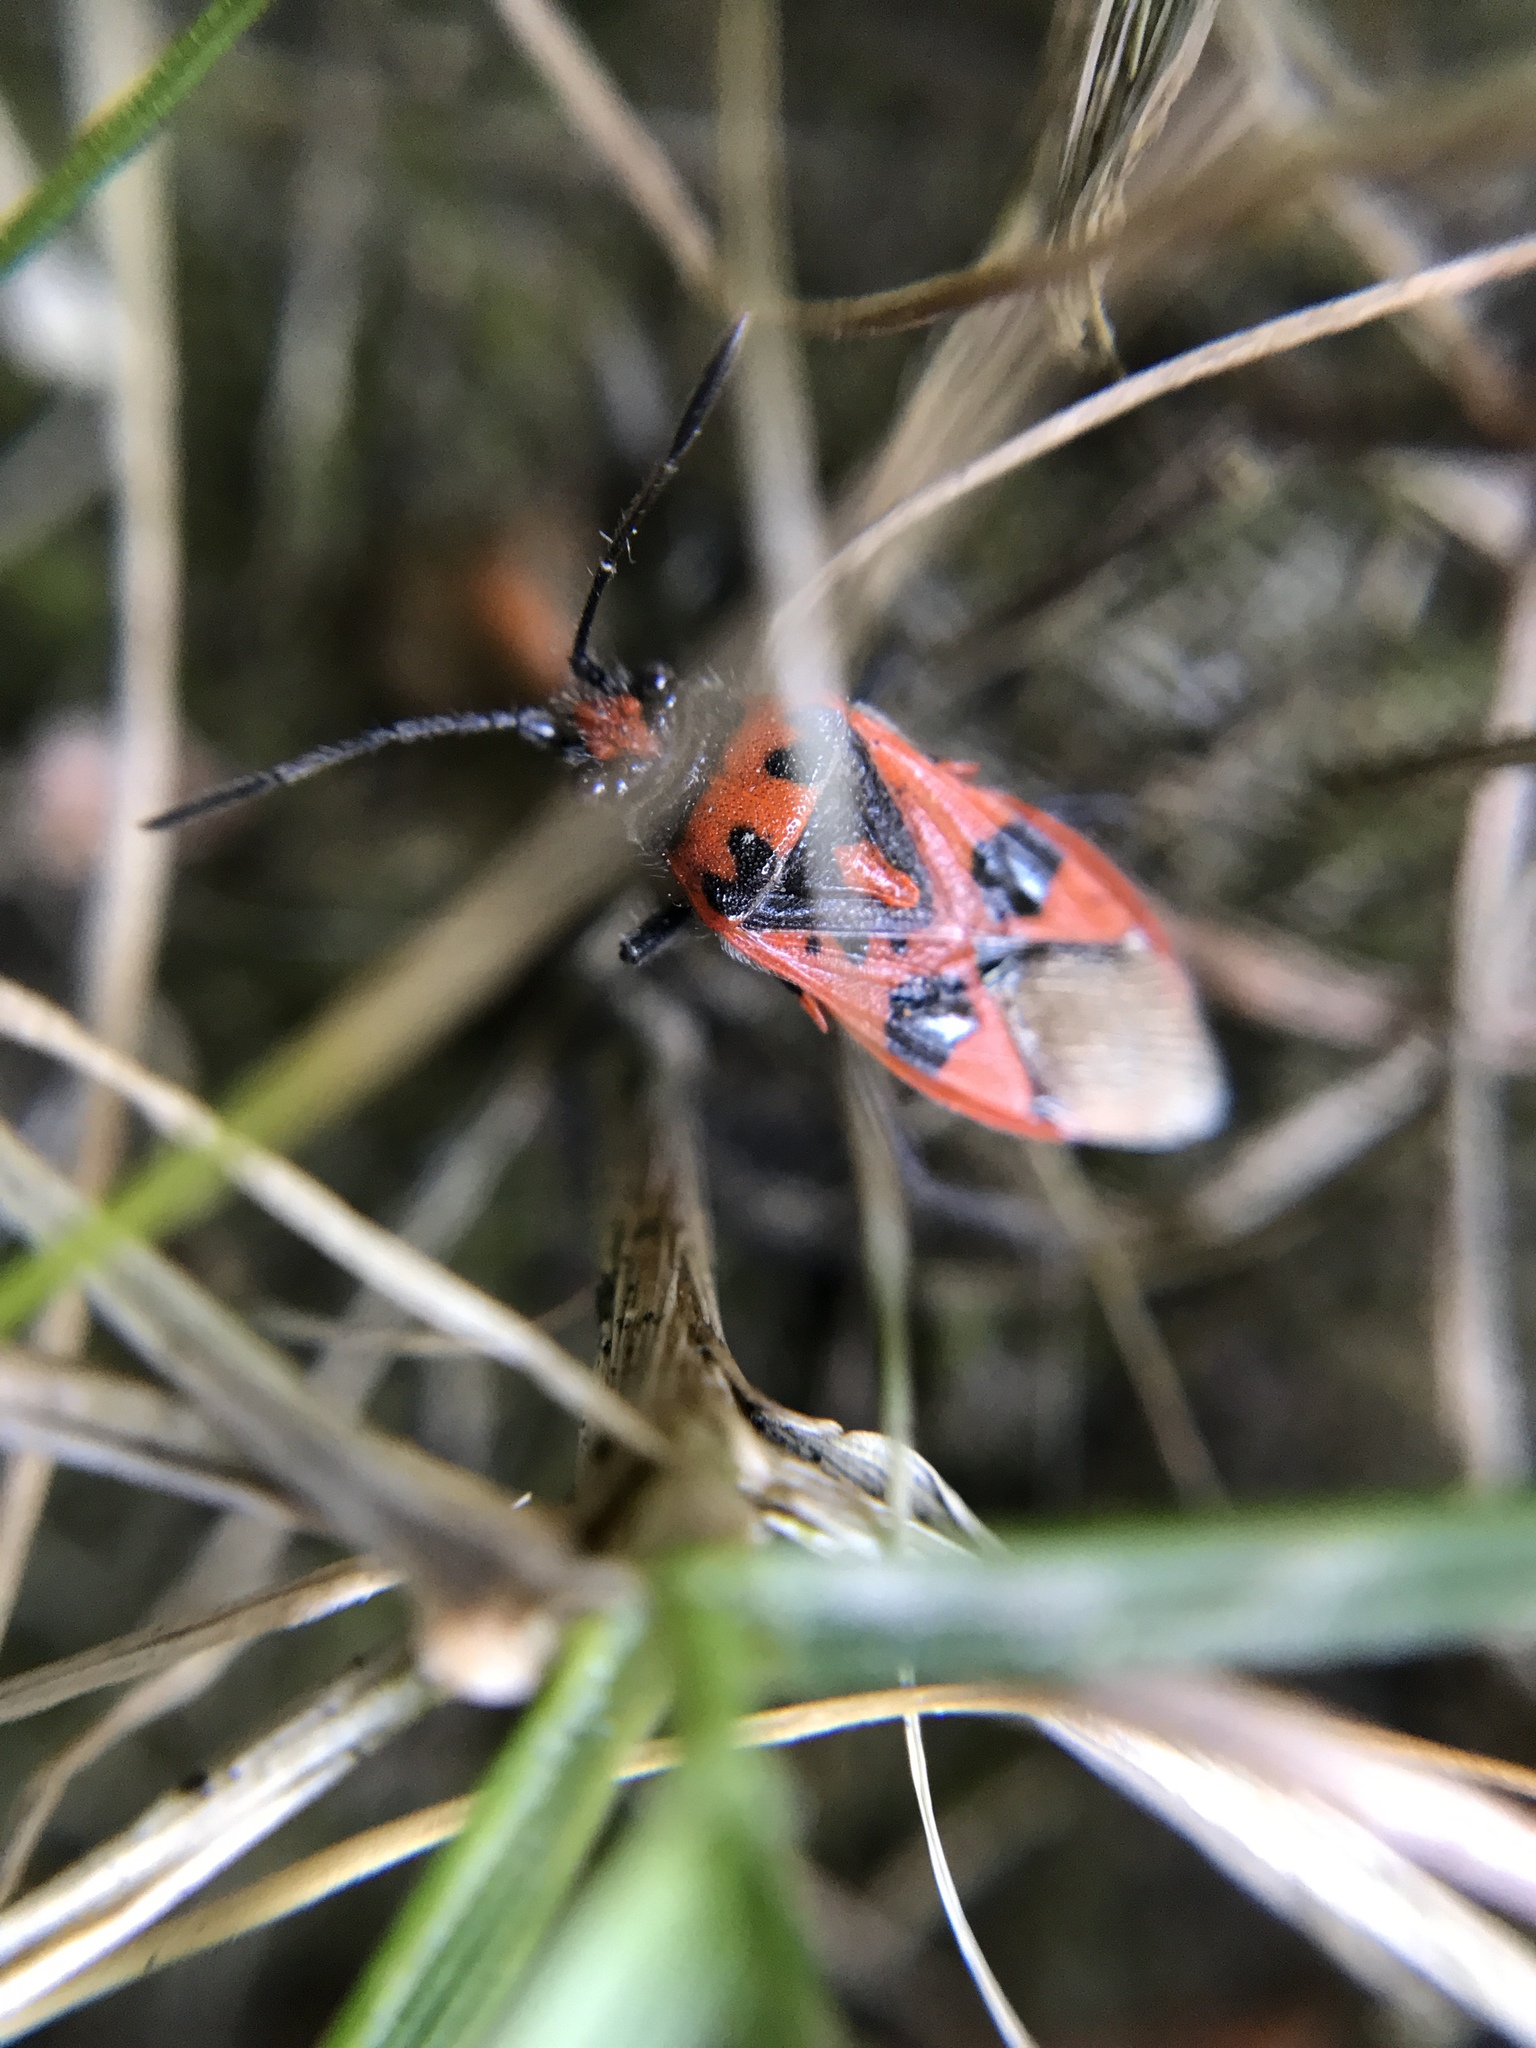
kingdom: Animalia
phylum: Arthropoda
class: Insecta
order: Hemiptera
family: Rhopalidae
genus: Corizus
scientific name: Corizus hyoscyami
